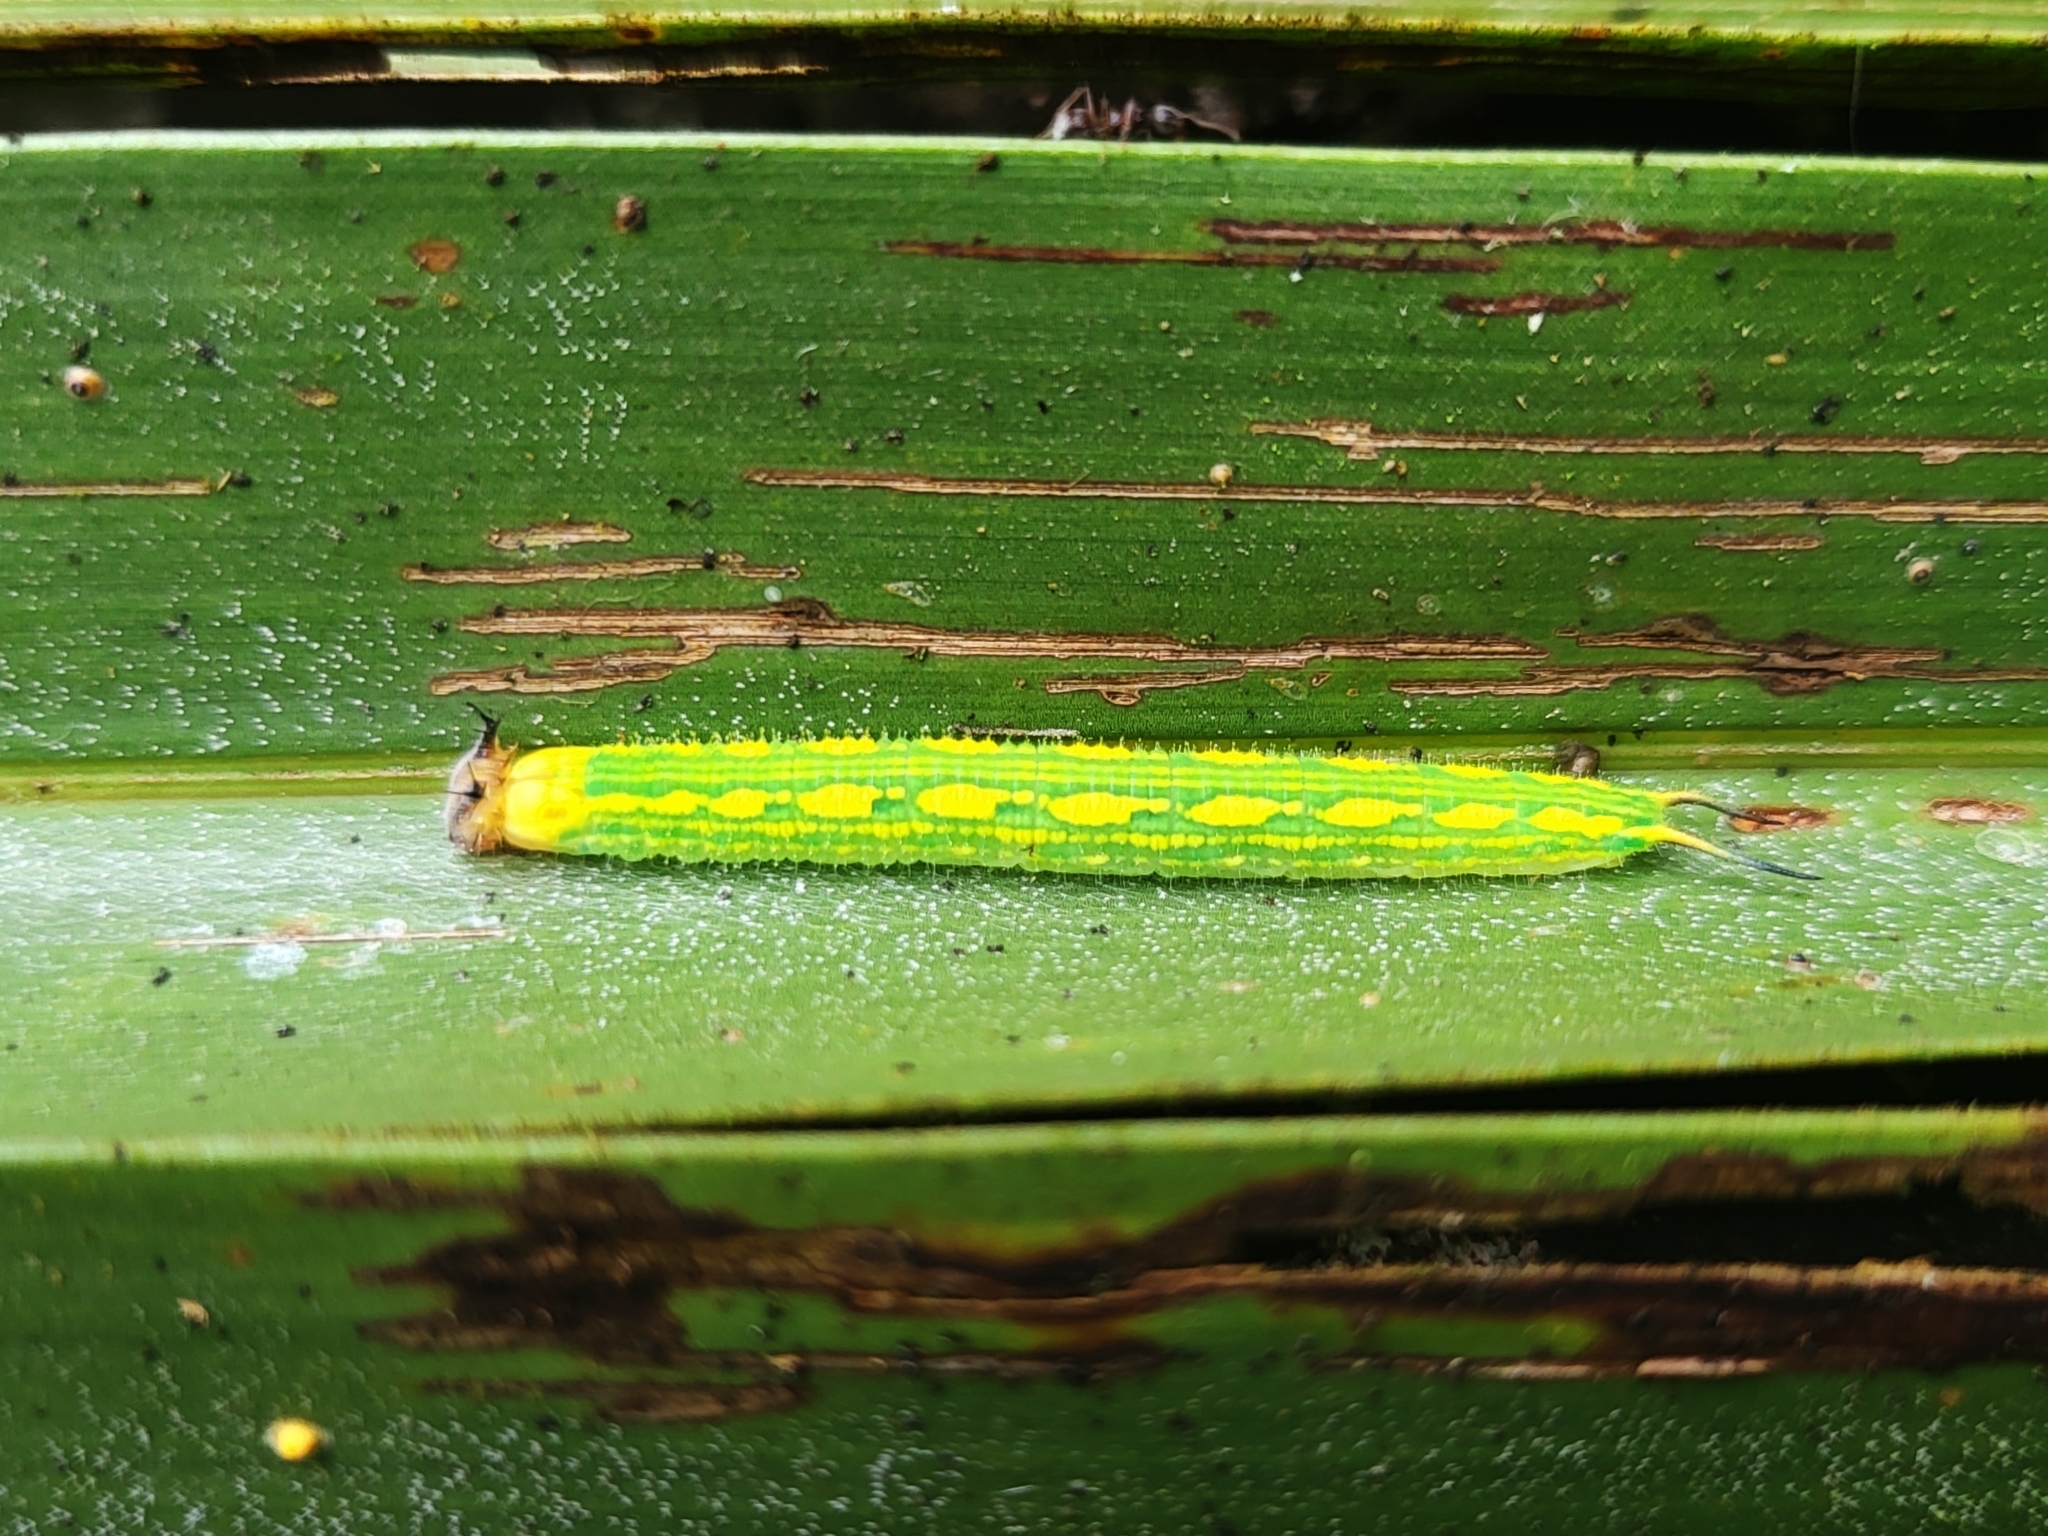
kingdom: Animalia
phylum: Arthropoda
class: Insecta
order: Lepidoptera
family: Nymphalidae
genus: Elymnias
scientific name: Elymnias nesaea
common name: Tiger palmfly
